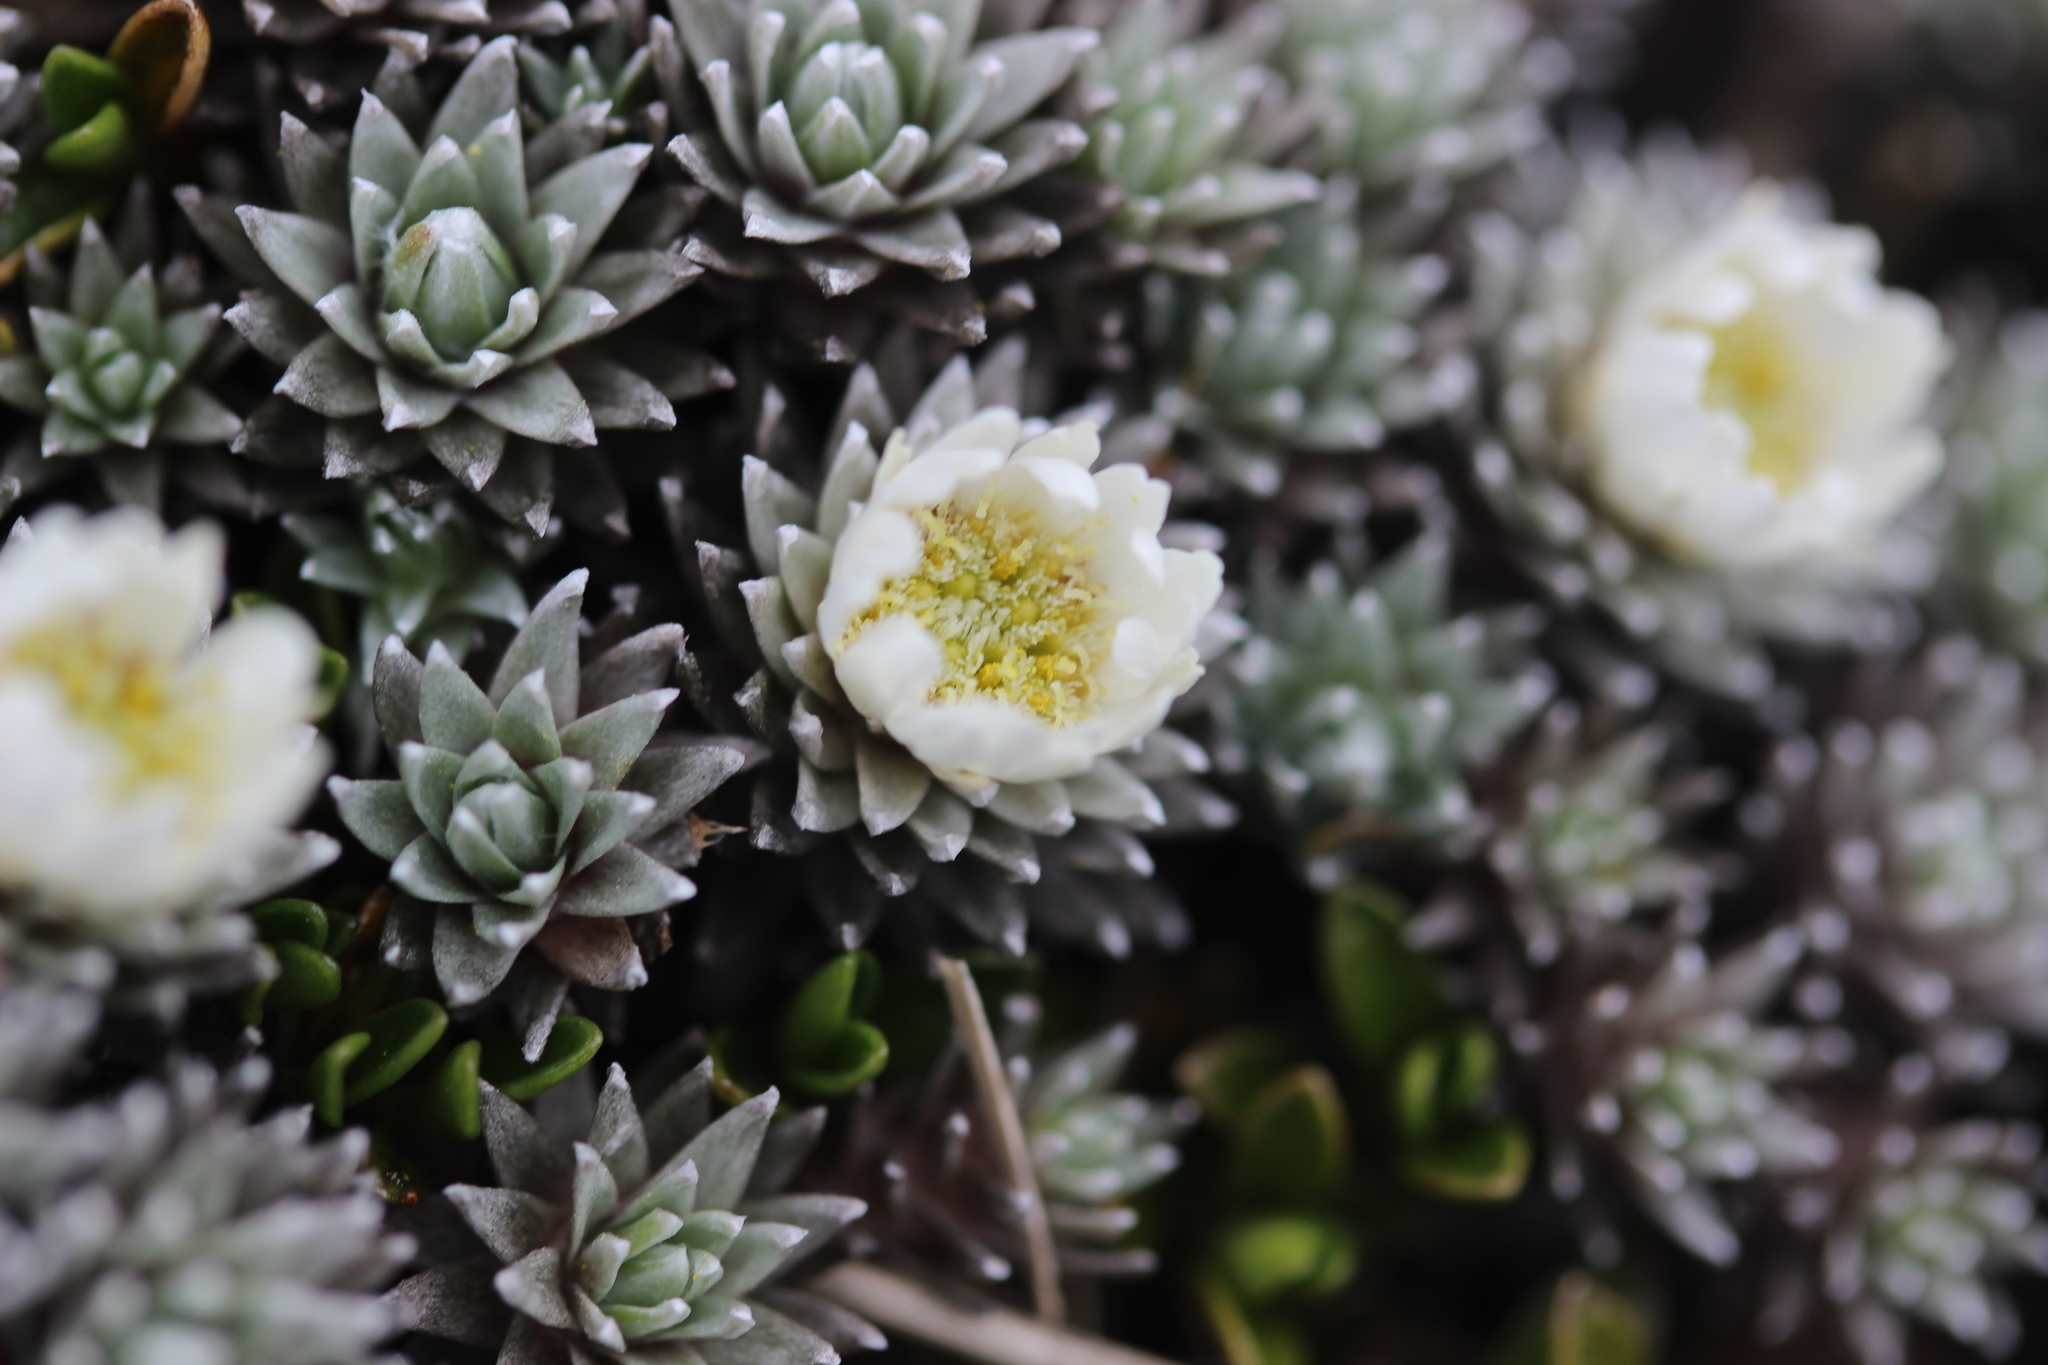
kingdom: Plantae
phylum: Tracheophyta
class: Magnoliopsida
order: Asterales
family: Asteraceae
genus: Raoulia
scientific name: Raoulia grandiflora
